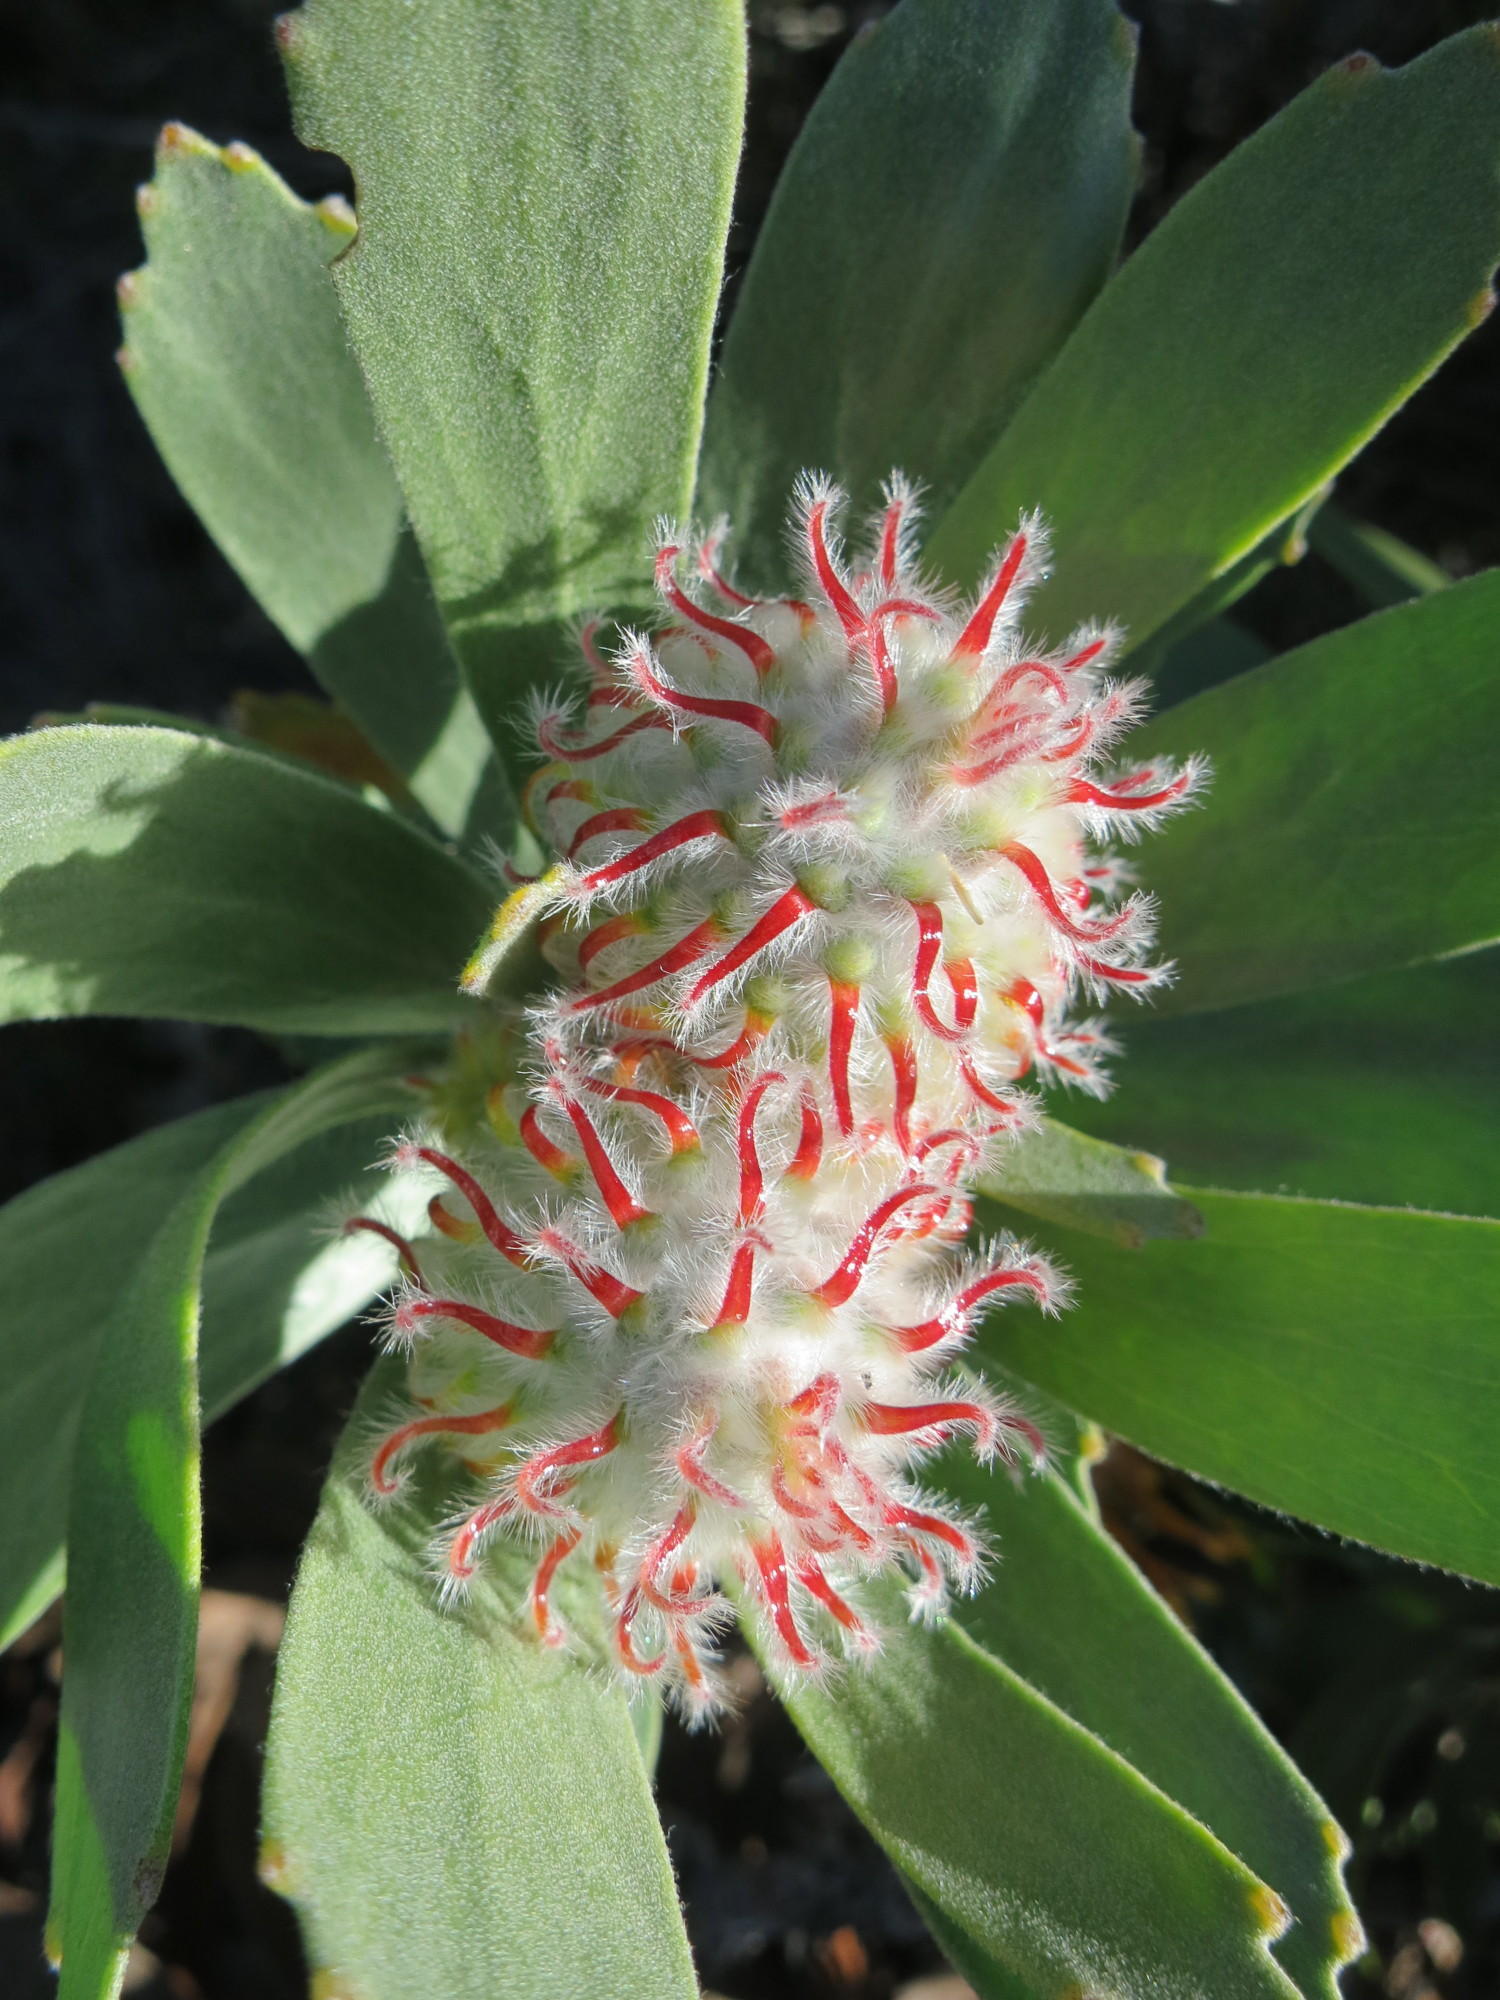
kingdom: Plantae
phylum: Tracheophyta
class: Magnoliopsida
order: Proteales
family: Proteaceae
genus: Leucospermum
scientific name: Leucospermum pluridens
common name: Robinson pincushion
